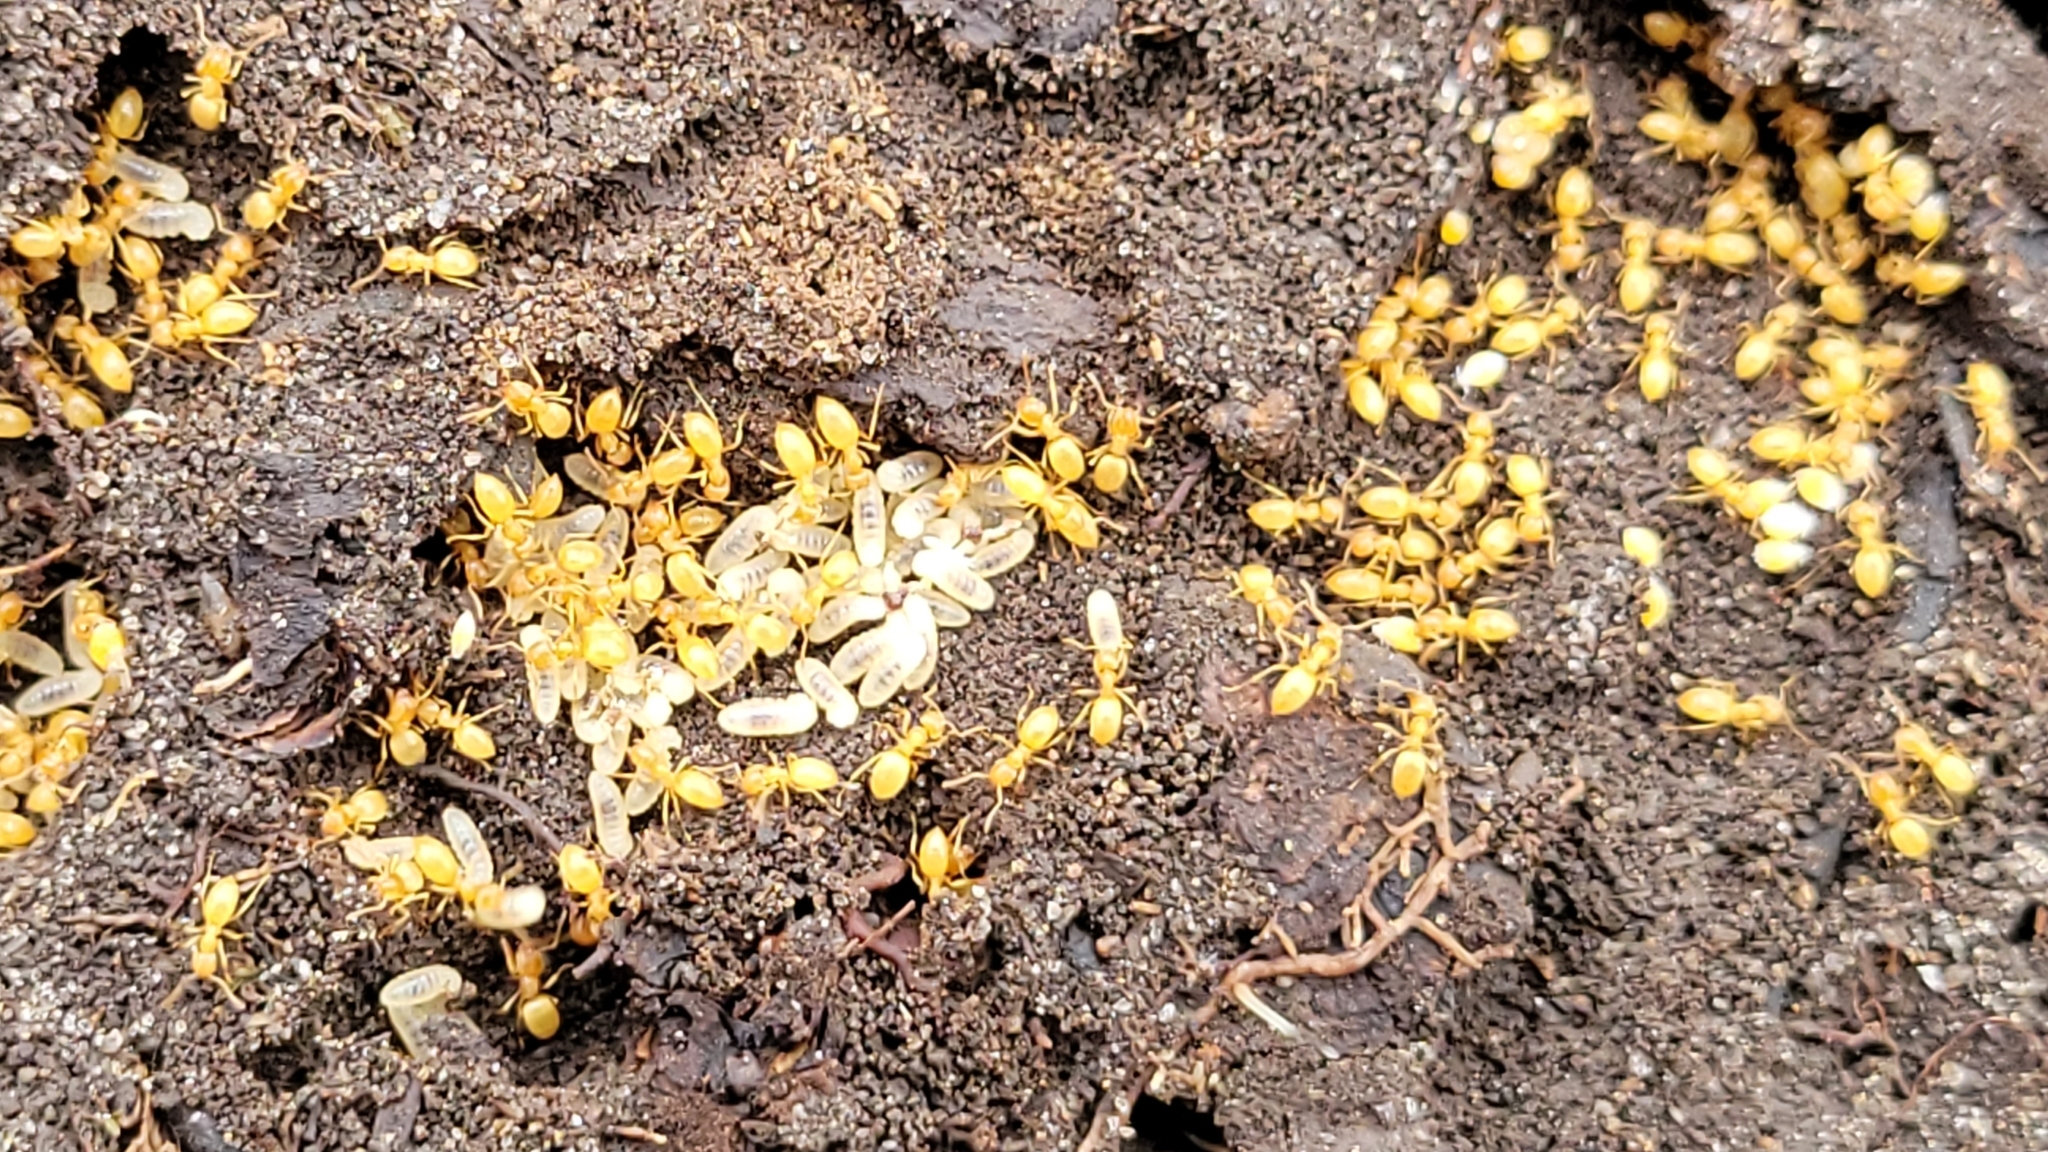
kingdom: Animalia
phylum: Arthropoda
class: Insecta
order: Hymenoptera
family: Formicidae
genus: Lasius
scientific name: Lasius
